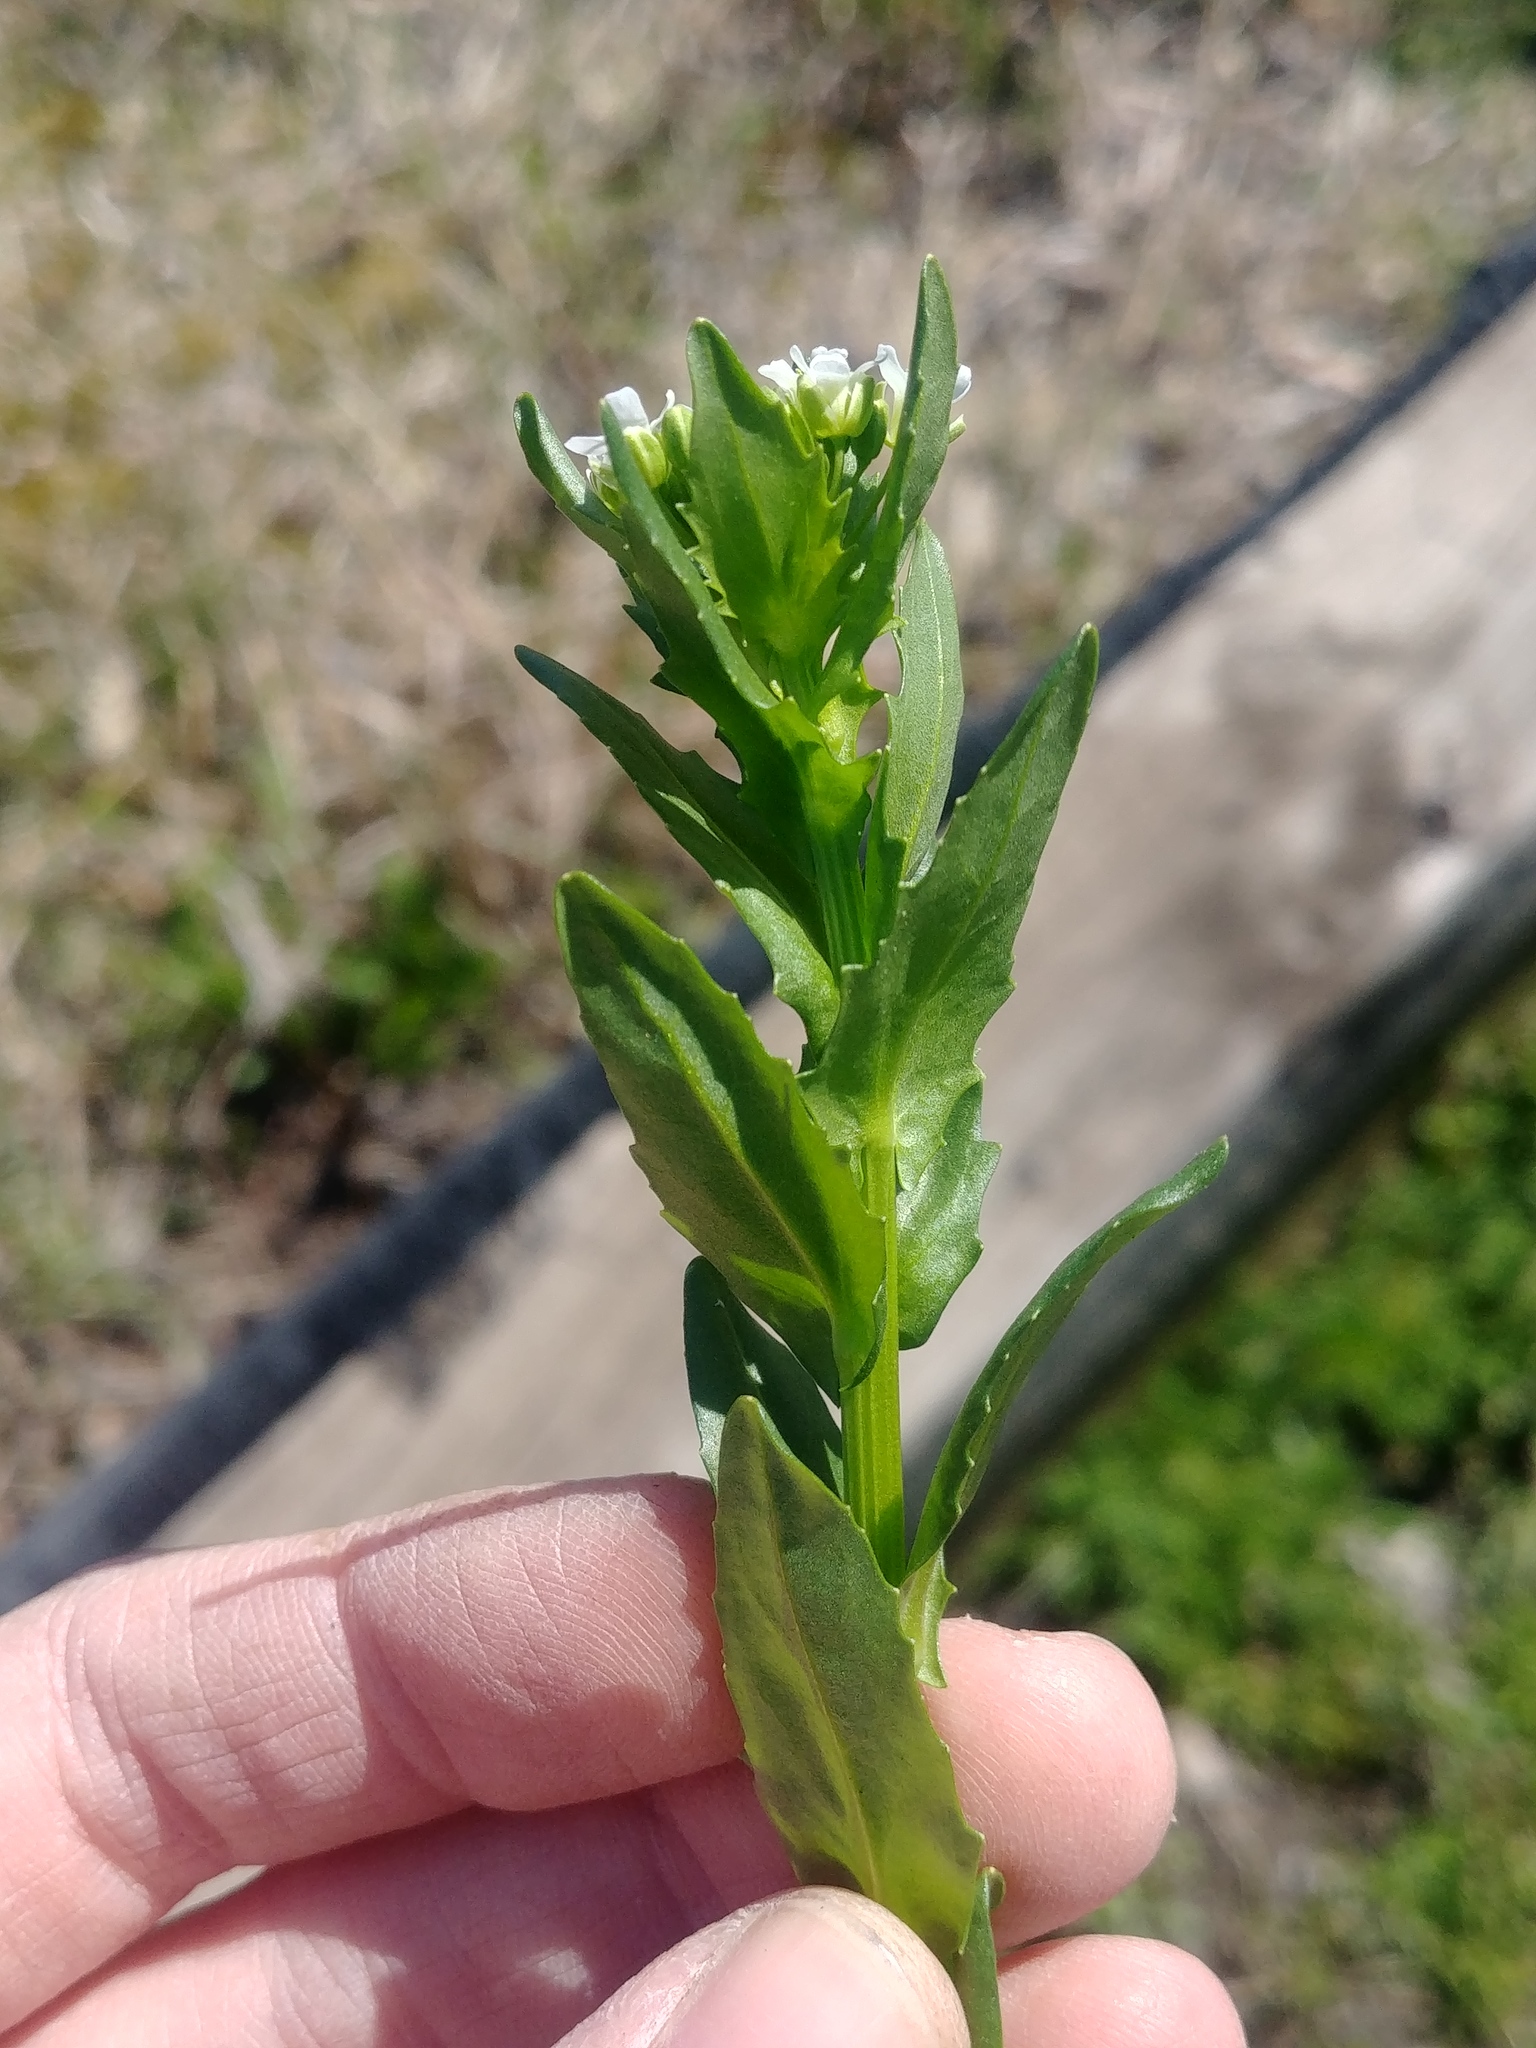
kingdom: Plantae
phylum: Tracheophyta
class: Magnoliopsida
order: Brassicales
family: Brassicaceae
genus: Thlaspi
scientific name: Thlaspi arvense
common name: Field pennycress
